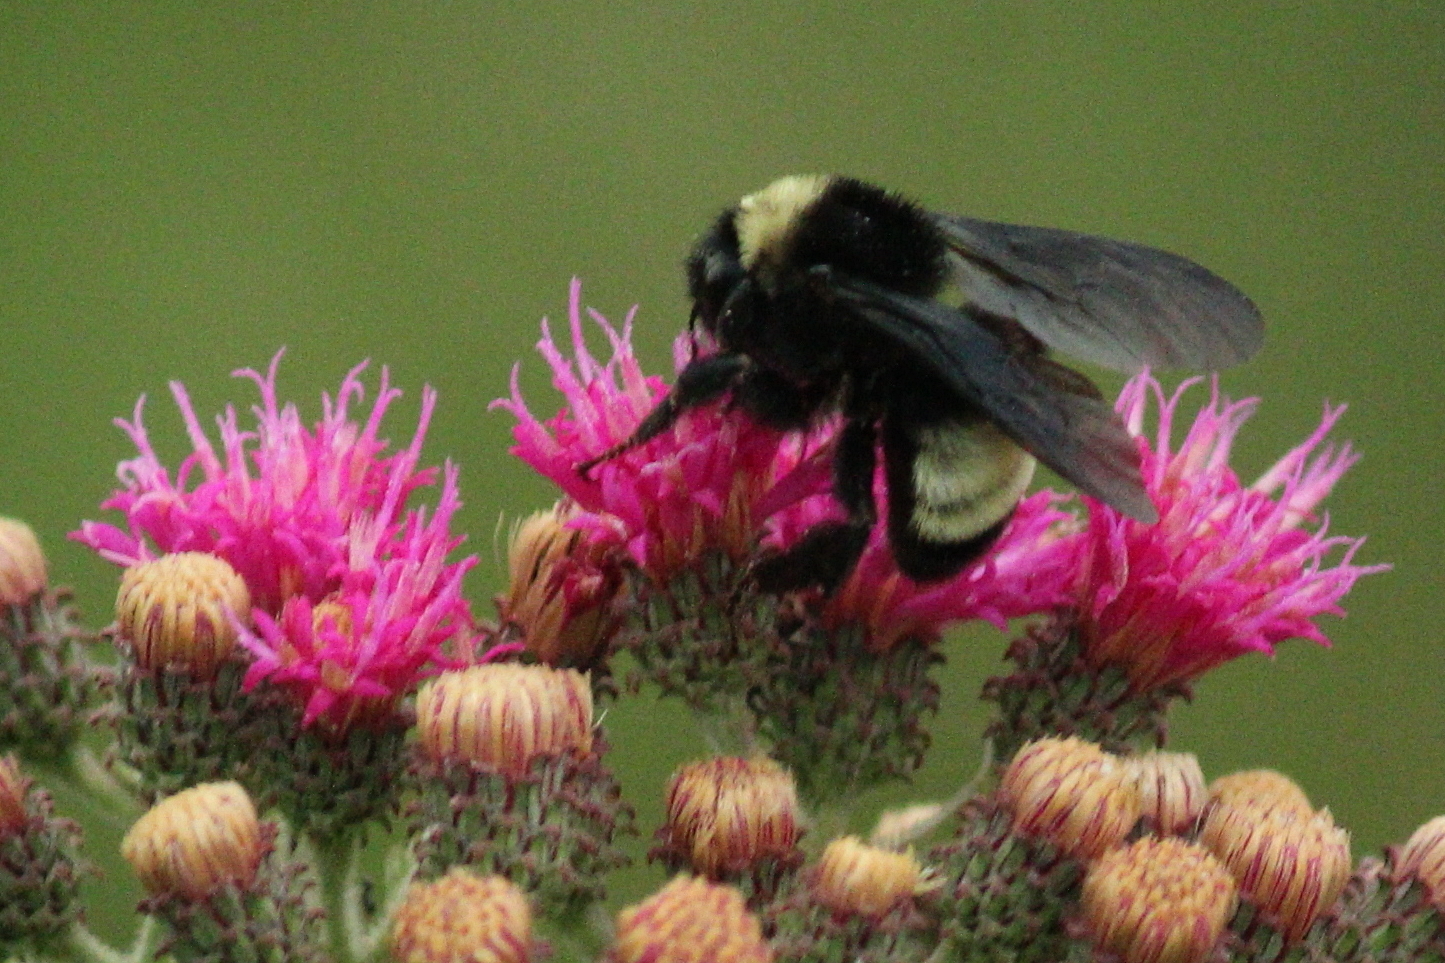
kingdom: Animalia
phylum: Arthropoda
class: Insecta
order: Hymenoptera
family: Apidae
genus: Bombus
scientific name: Bombus pensylvanicus
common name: Bumble bee
